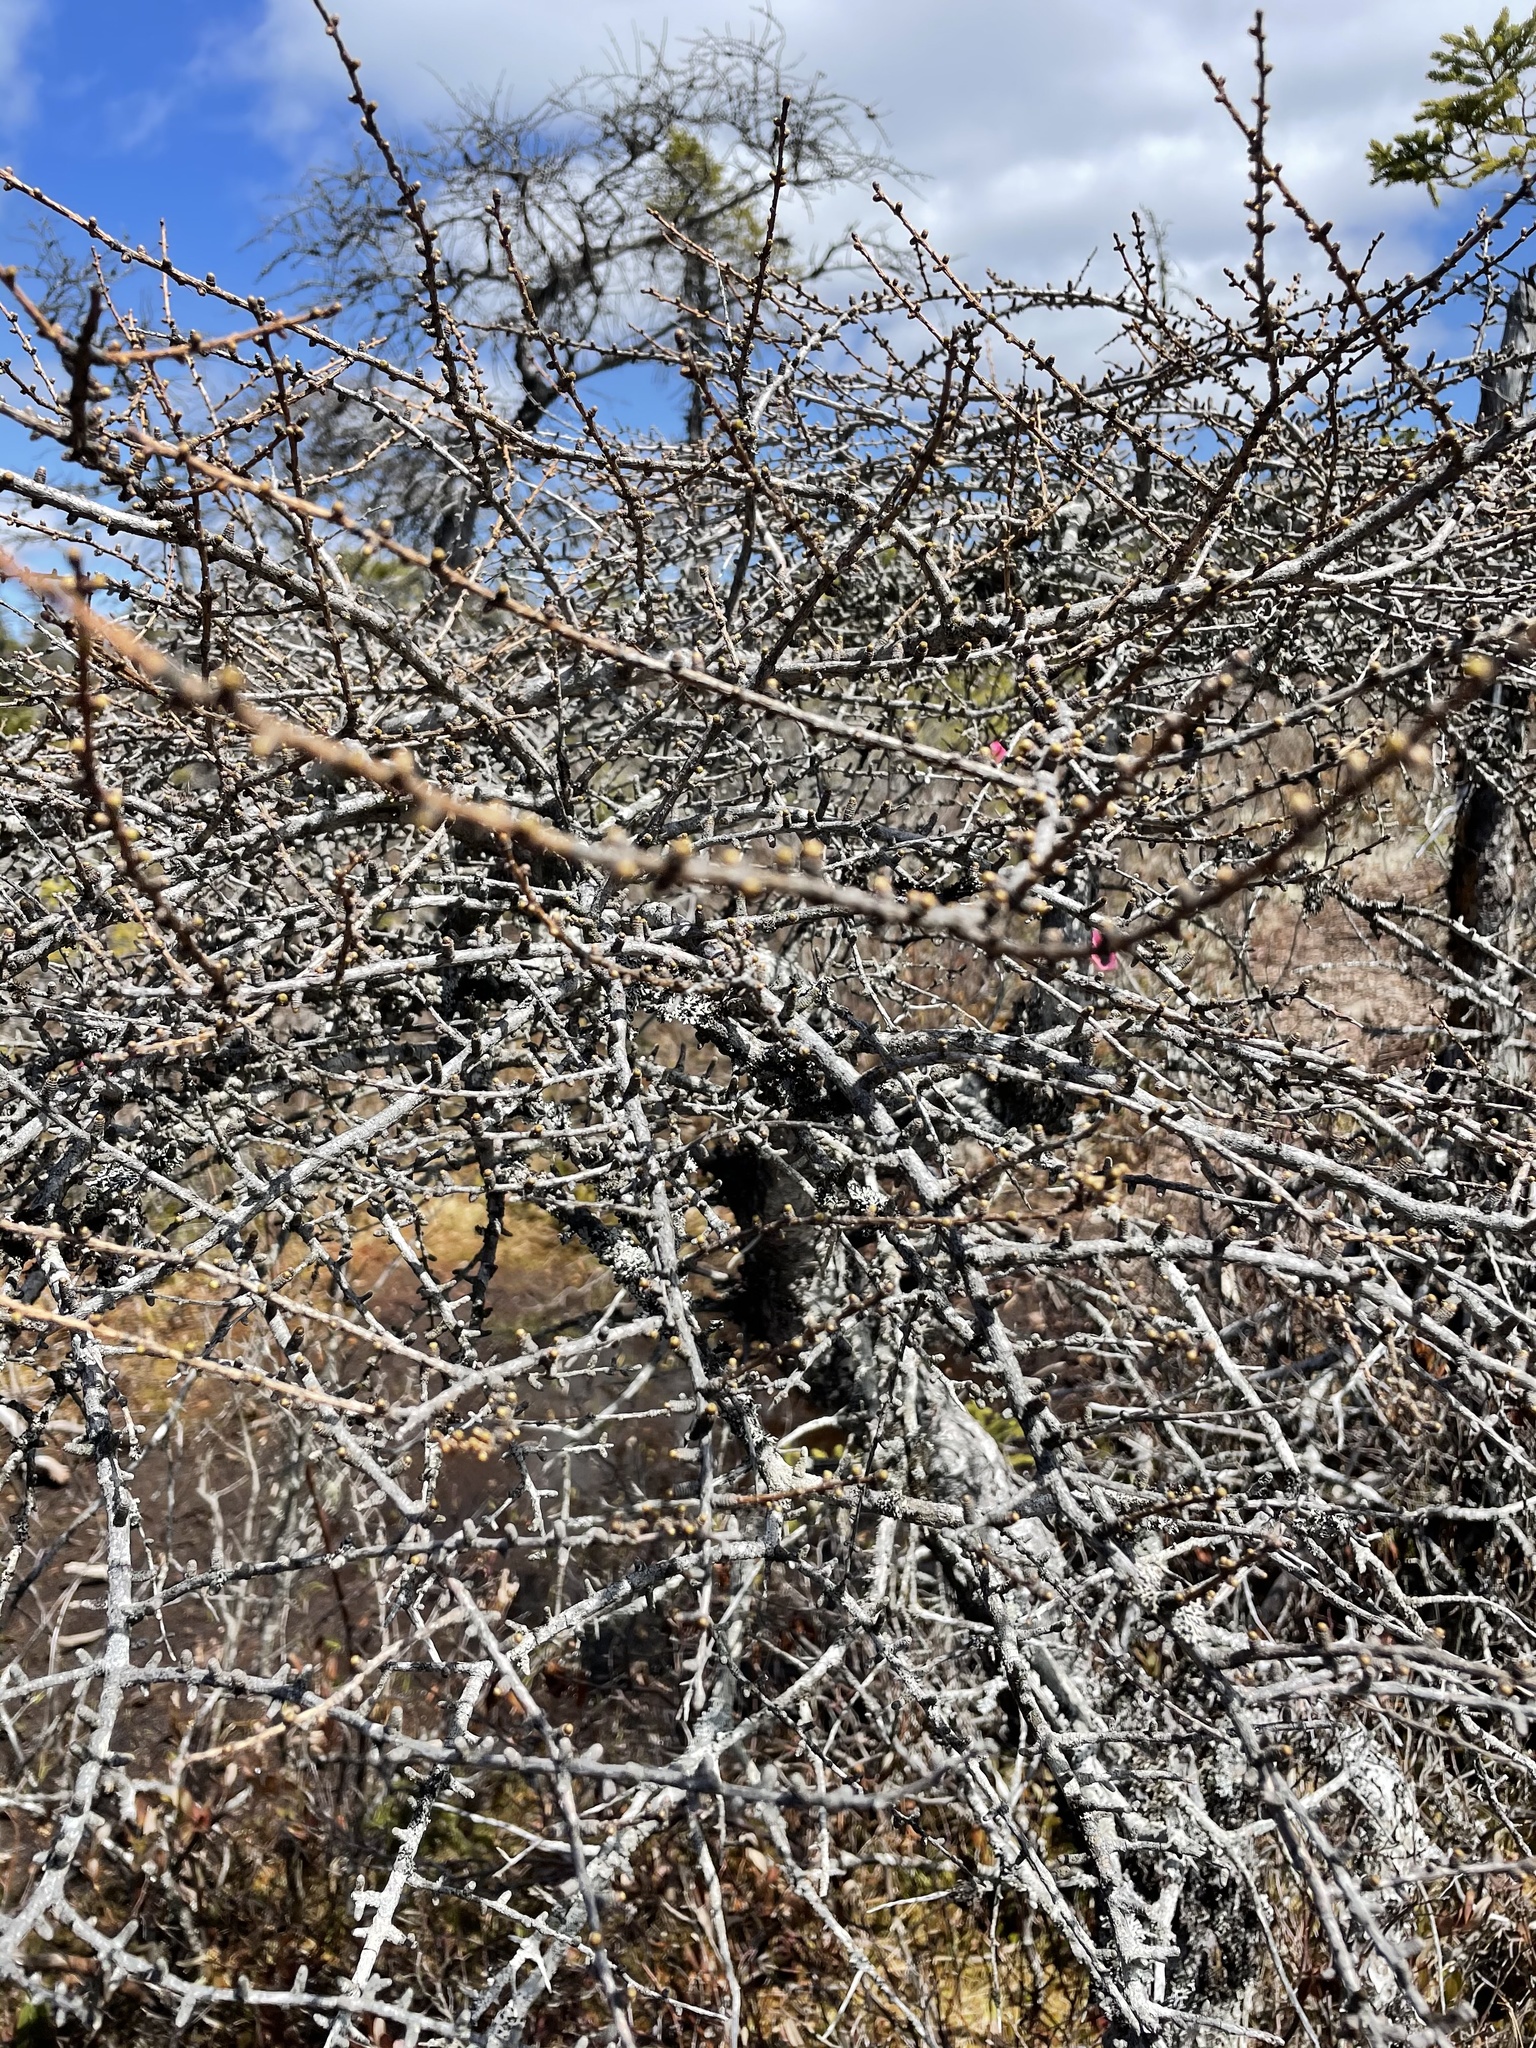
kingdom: Plantae
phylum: Tracheophyta
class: Pinopsida
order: Pinales
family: Pinaceae
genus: Larix
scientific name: Larix laricina
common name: American larch
